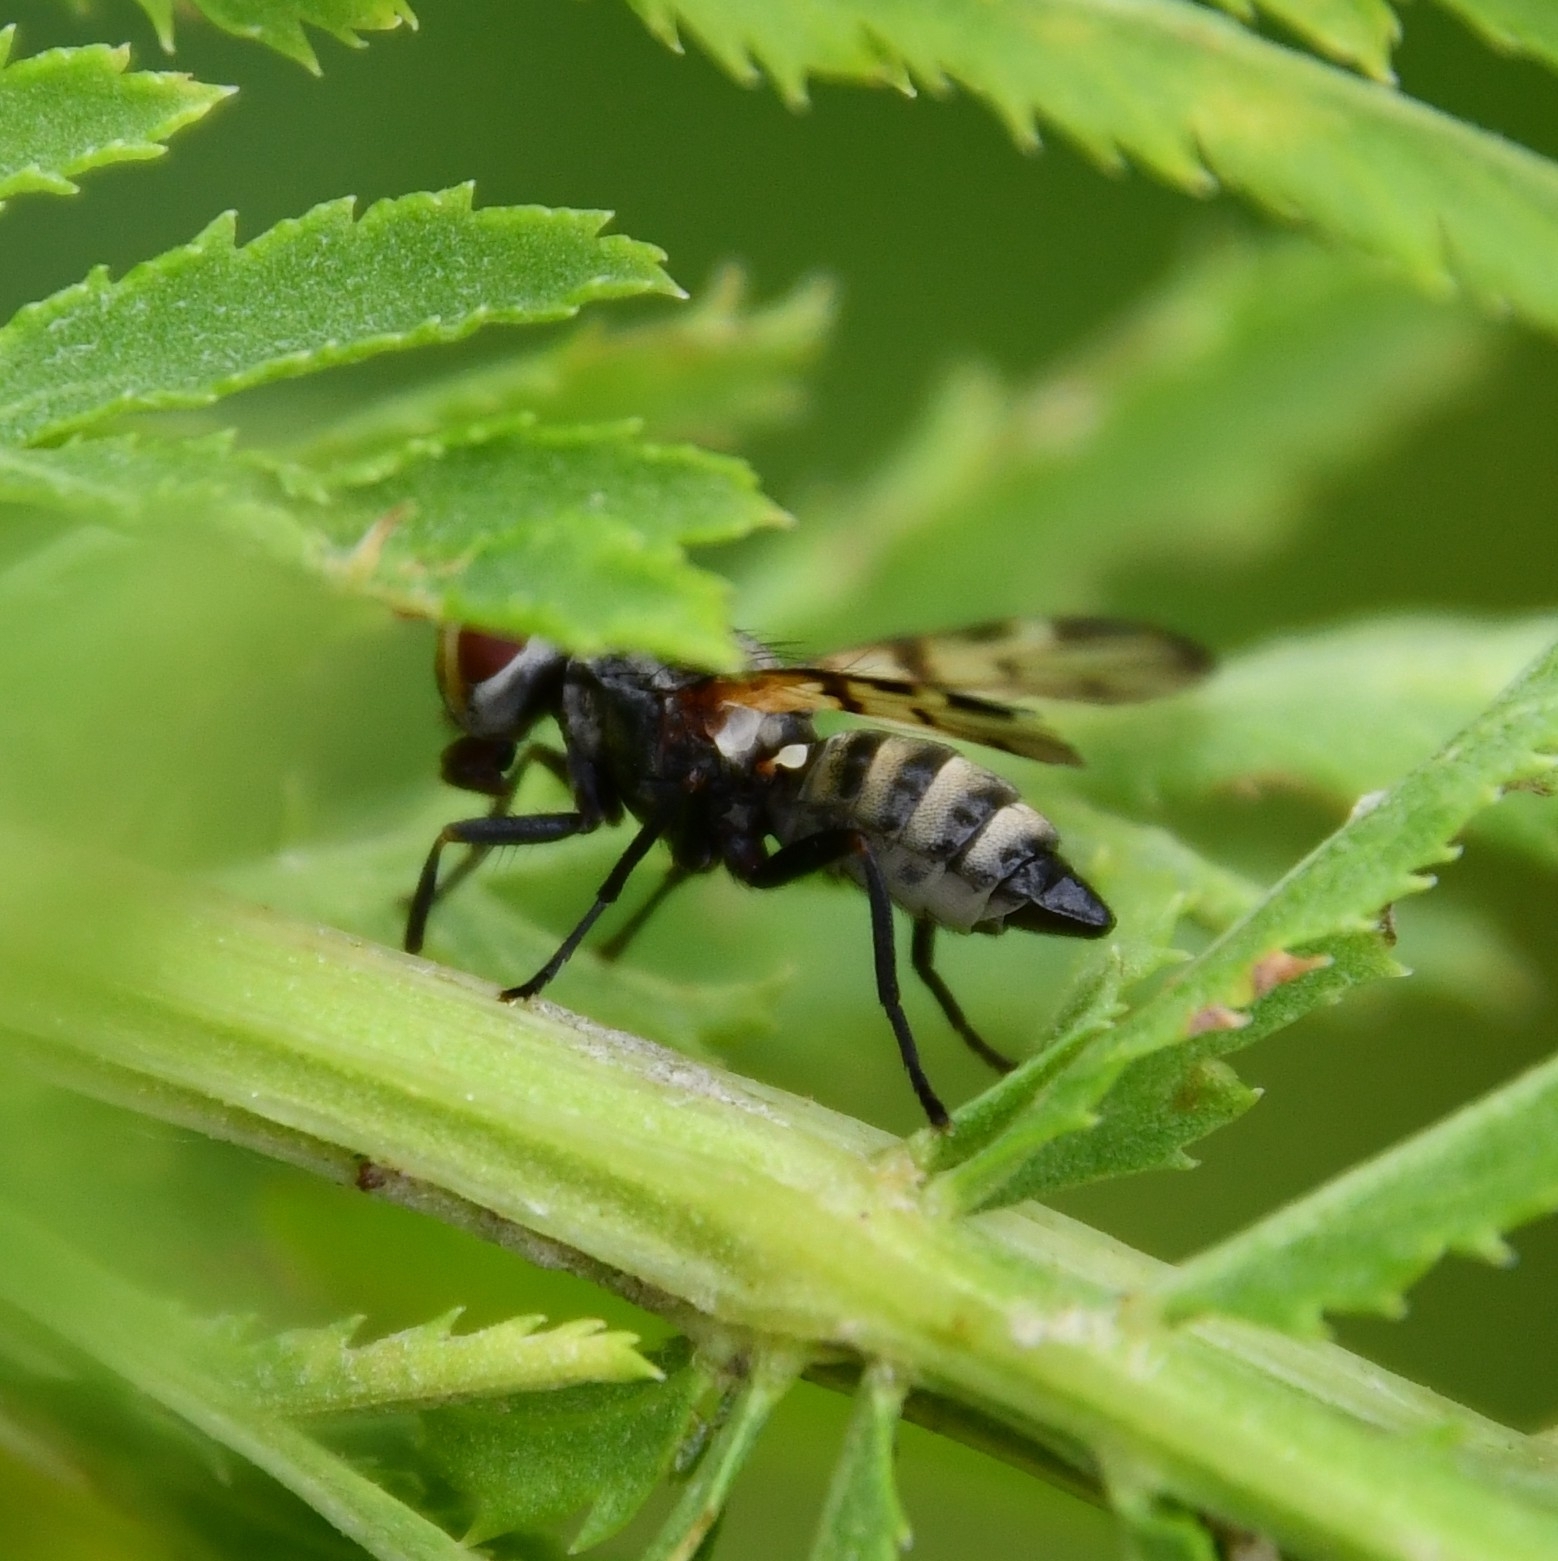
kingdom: Animalia
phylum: Arthropoda
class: Insecta
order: Diptera
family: Ulidiidae
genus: Otites
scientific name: Otites formosa
